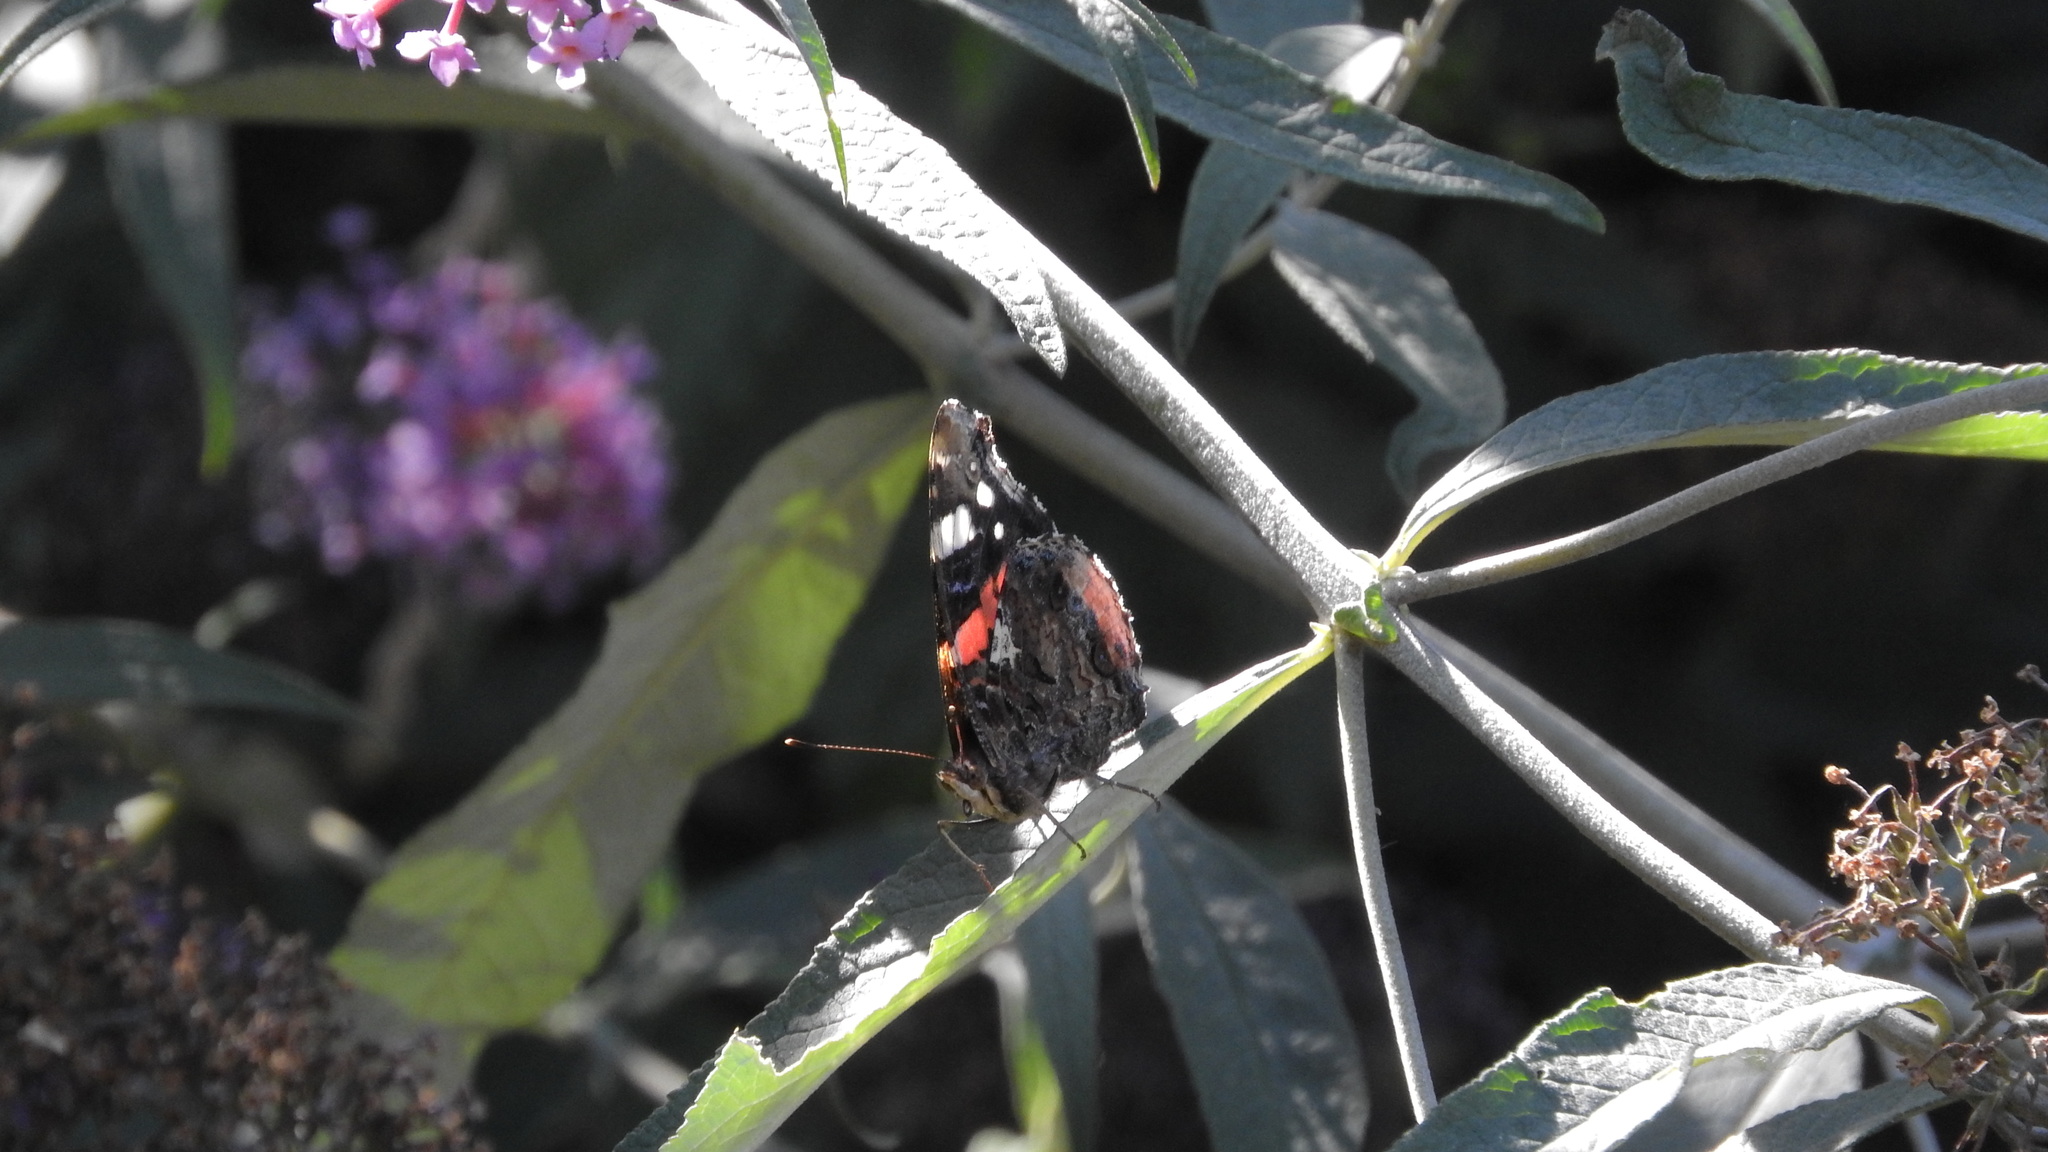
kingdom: Animalia
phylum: Arthropoda
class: Insecta
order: Lepidoptera
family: Nymphalidae
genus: Vanessa
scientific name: Vanessa atalanta
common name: Red admiral
